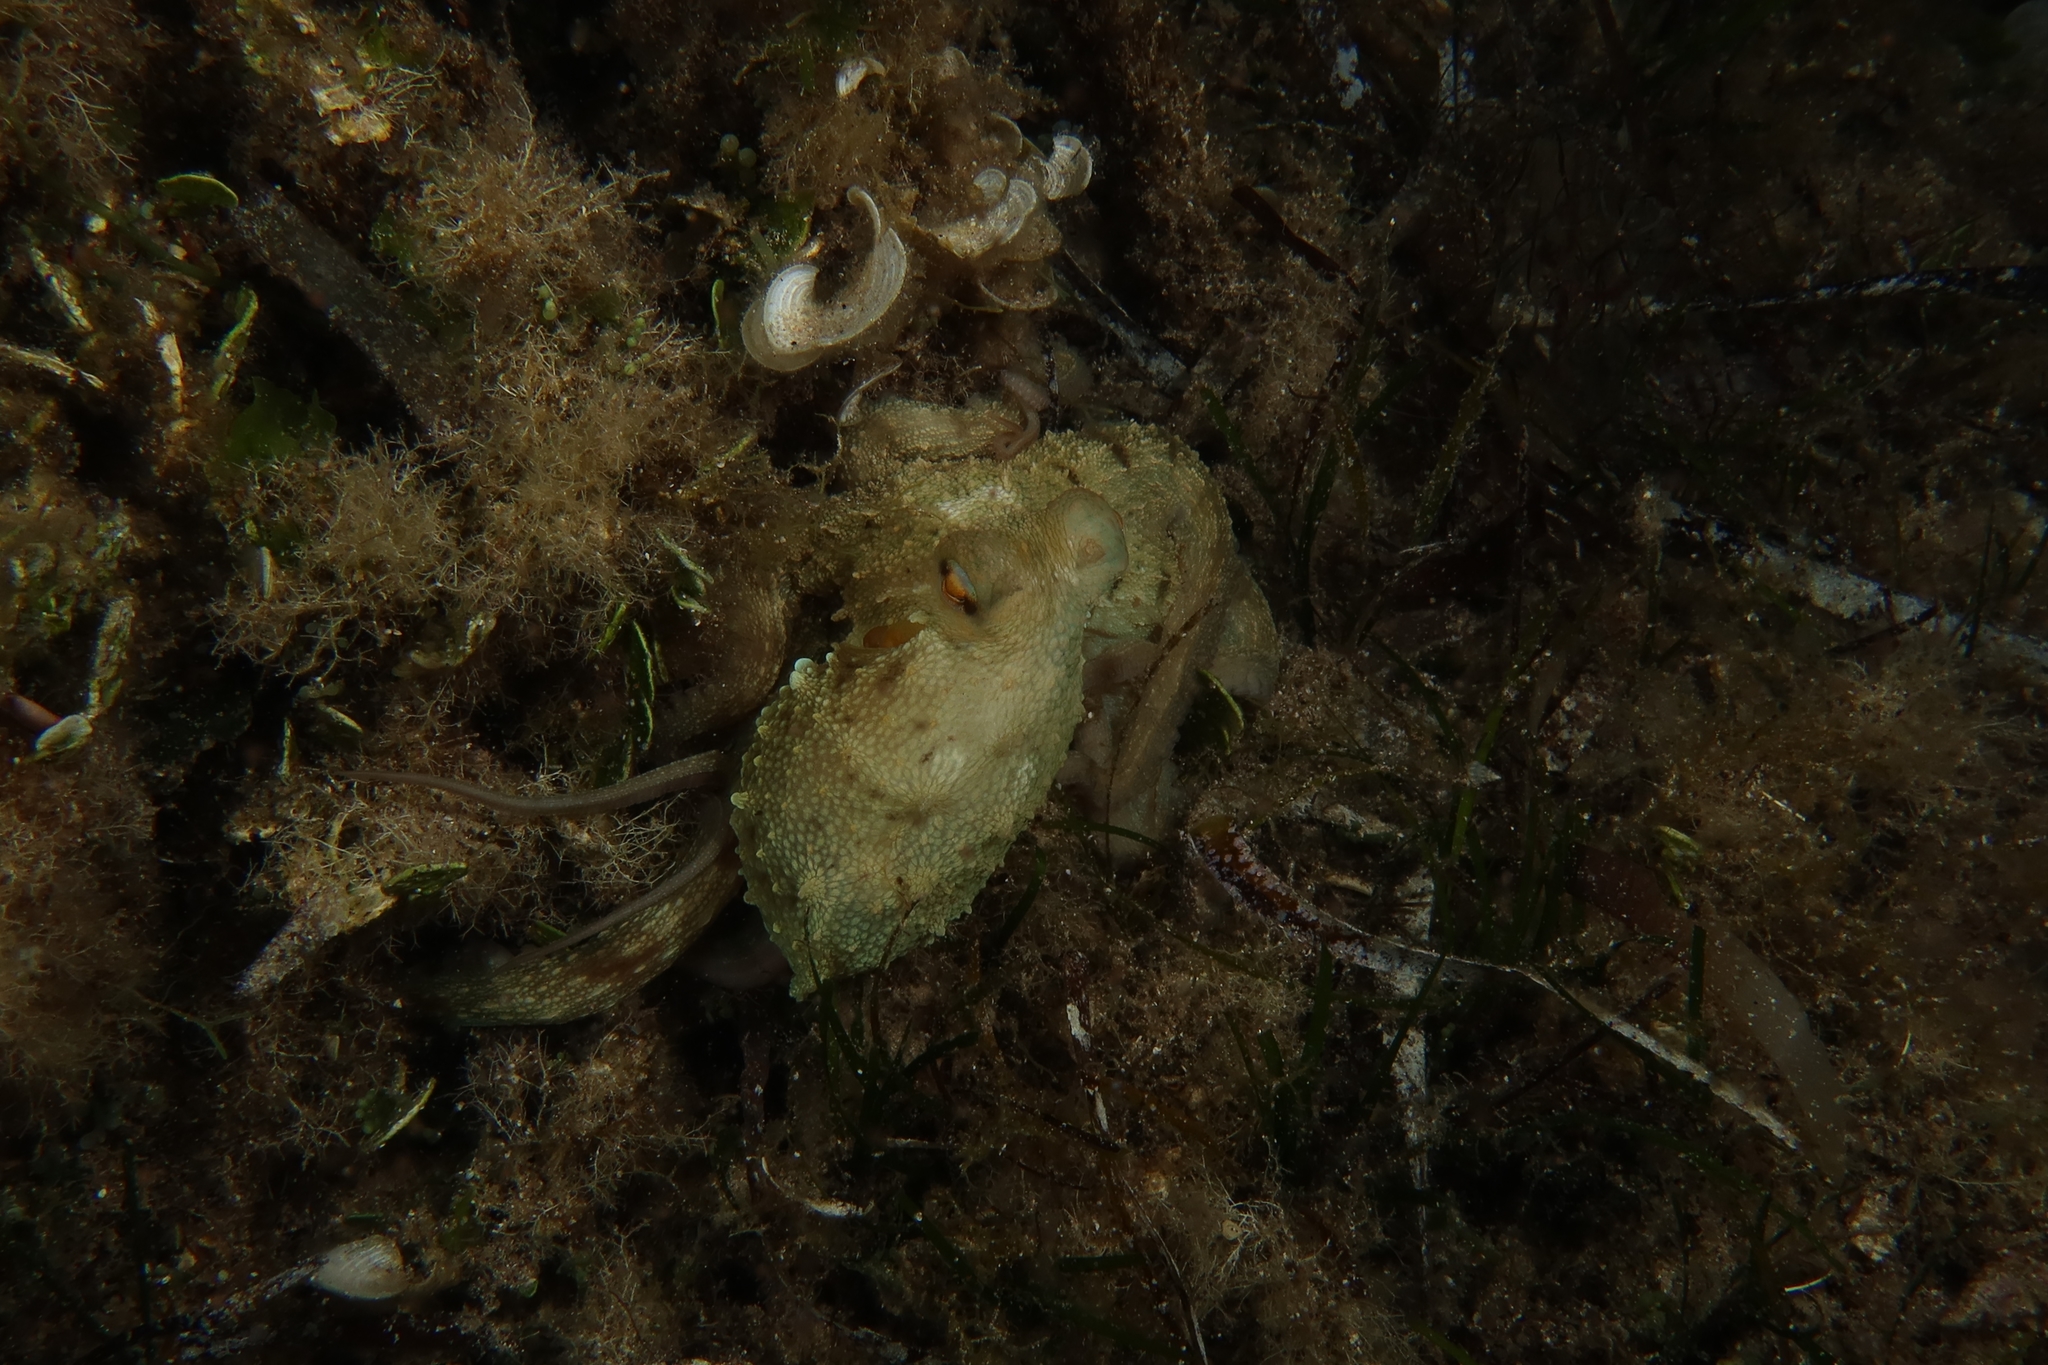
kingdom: Animalia
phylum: Mollusca
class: Cephalopoda
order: Octopoda
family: Octopodidae
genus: Octopus
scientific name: Octopus vulgaris
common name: Common octopus
